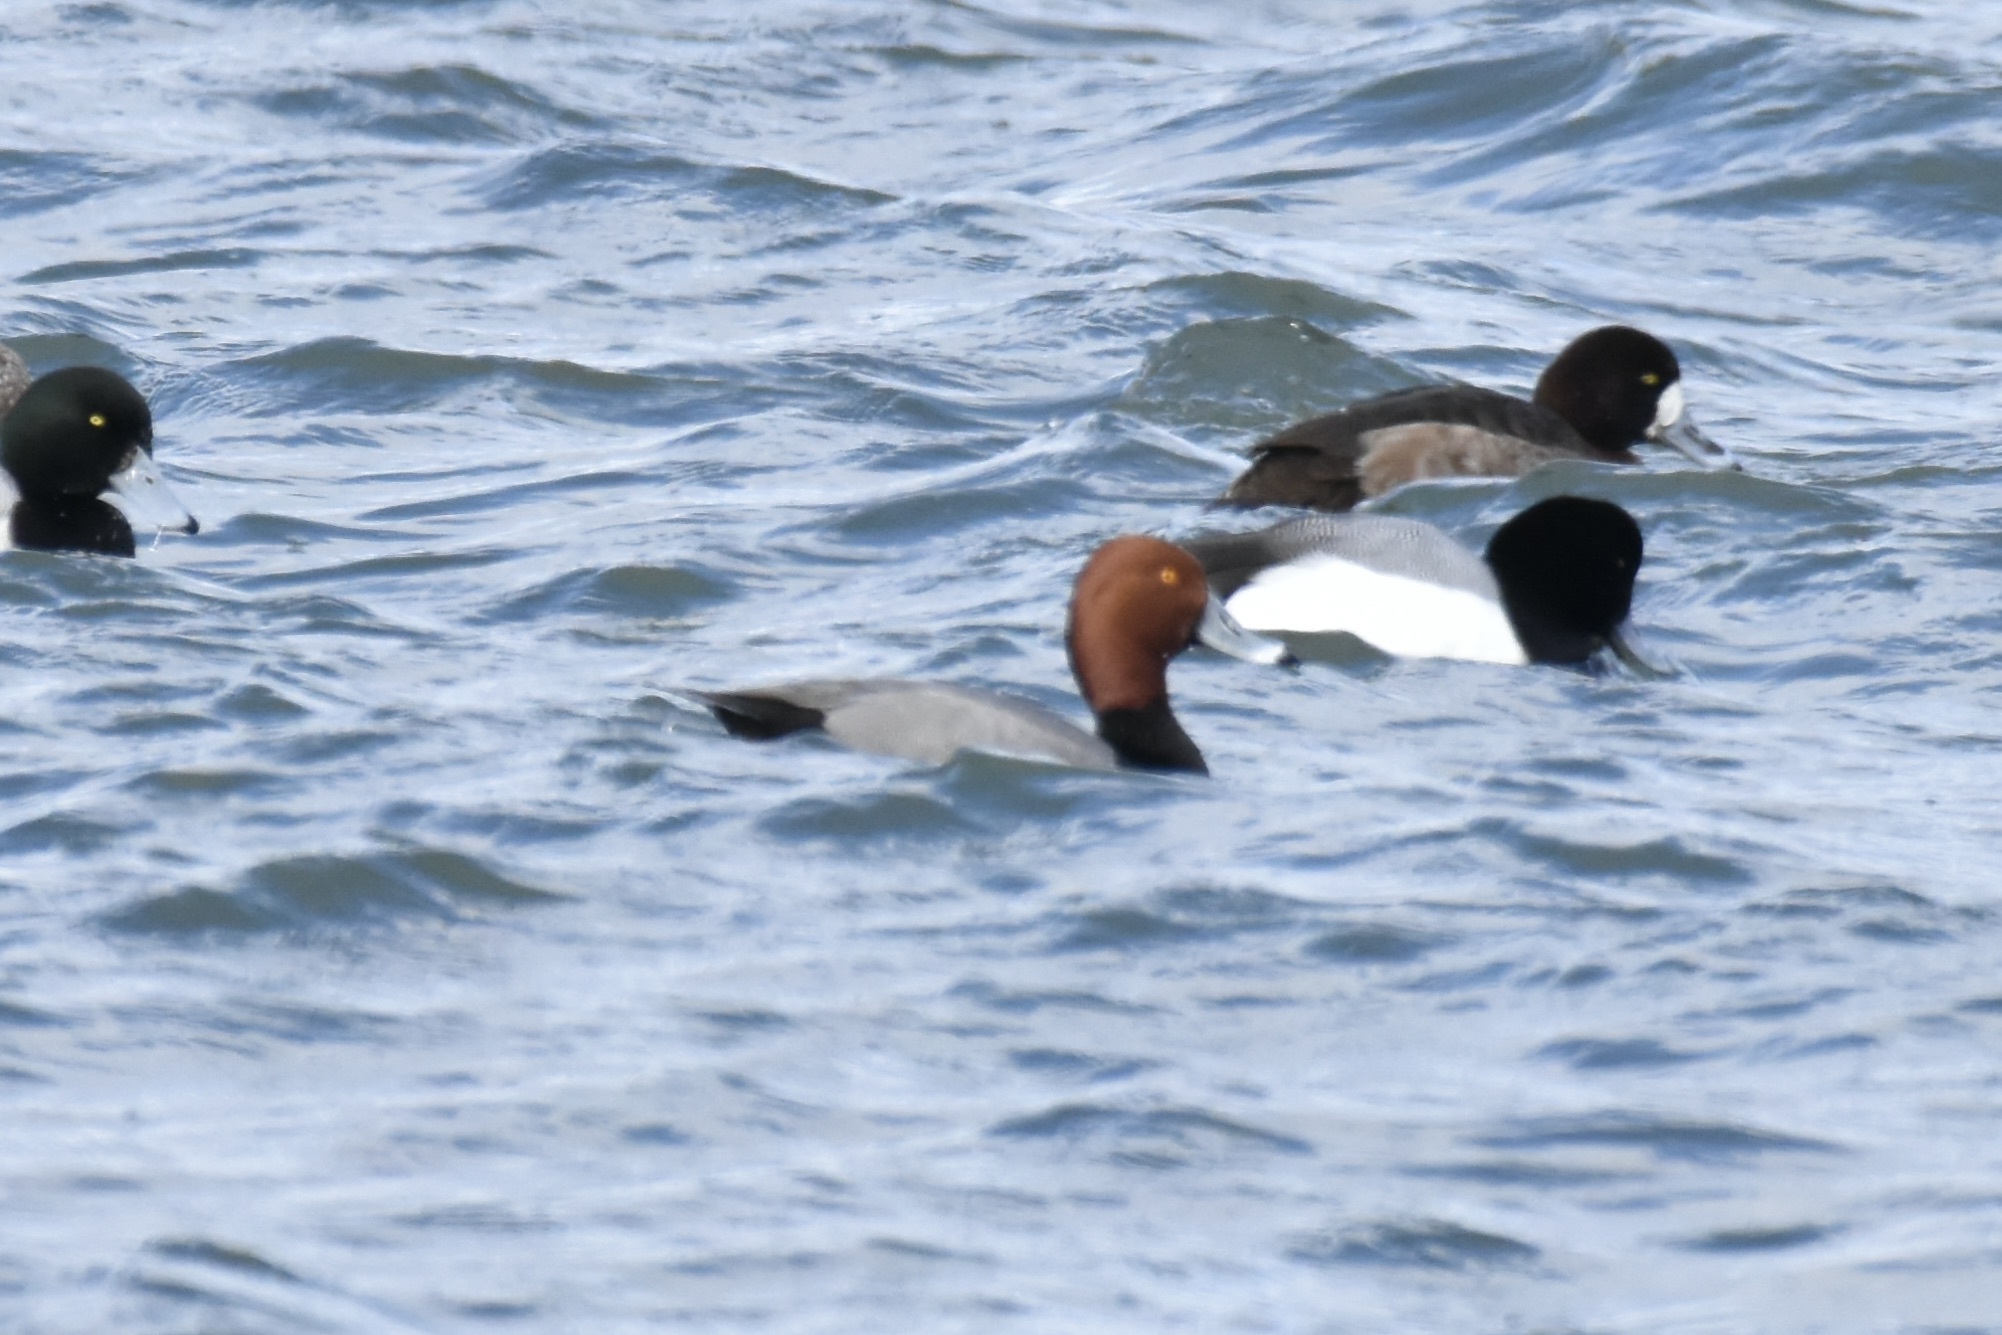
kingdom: Animalia
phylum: Chordata
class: Aves
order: Anseriformes
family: Anatidae
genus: Aythya
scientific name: Aythya americana
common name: Redhead
